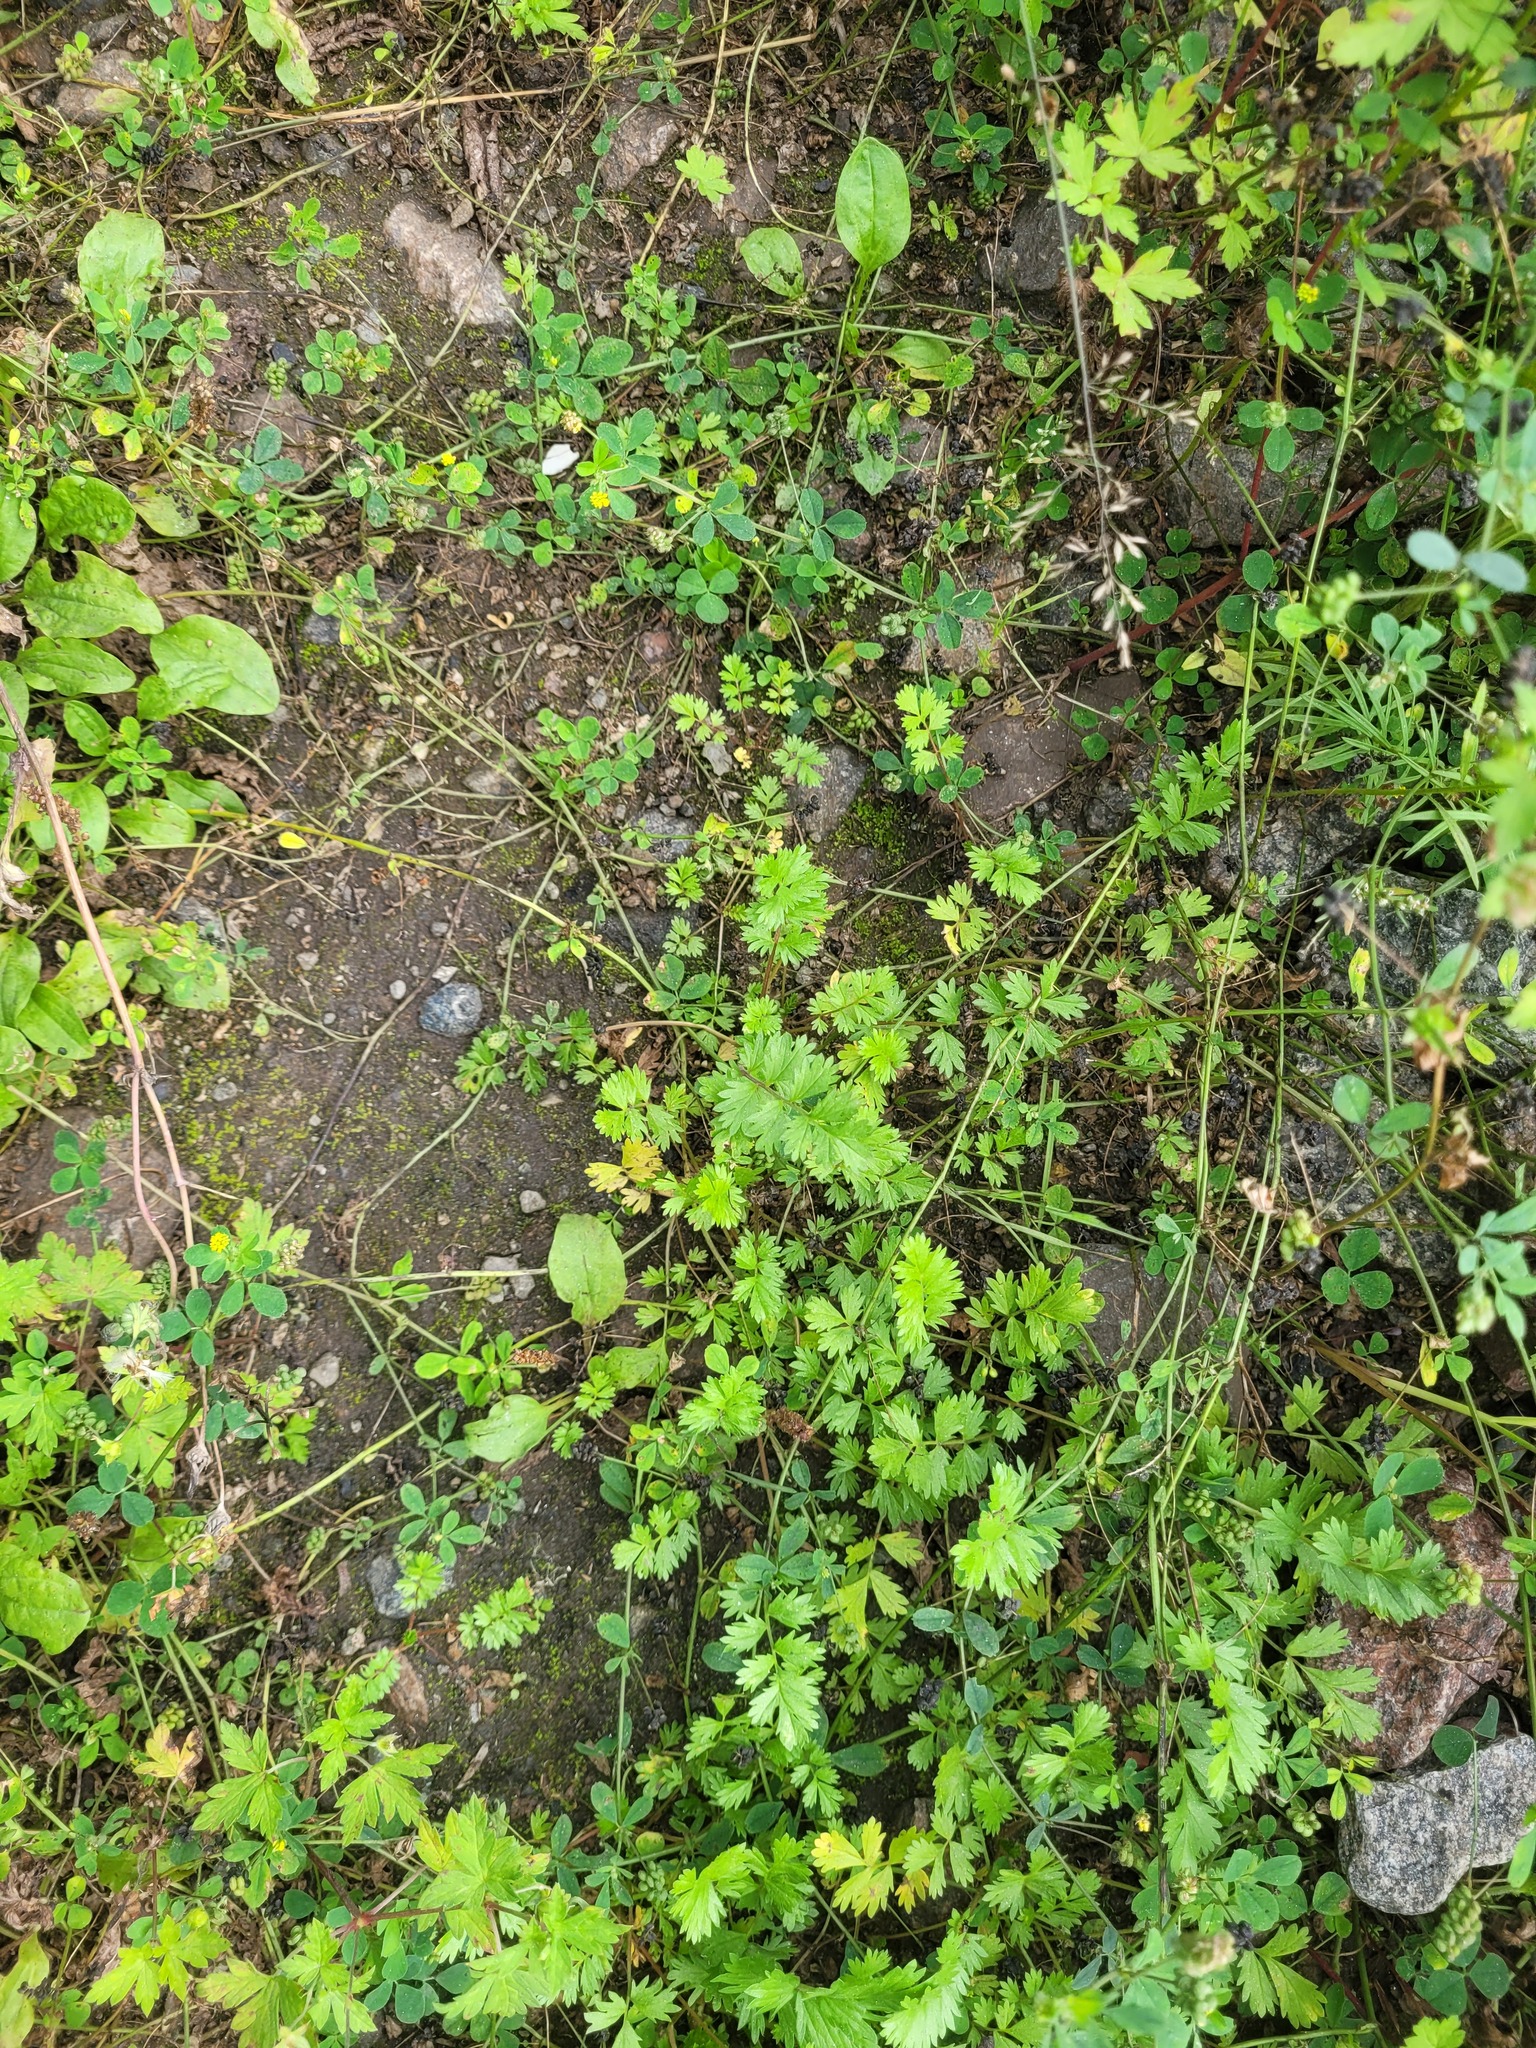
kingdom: Plantae
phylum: Tracheophyta
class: Magnoliopsida
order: Rosales
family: Rosaceae
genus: Potentilla
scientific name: Potentilla supina
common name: Prostrate cinquefoil
